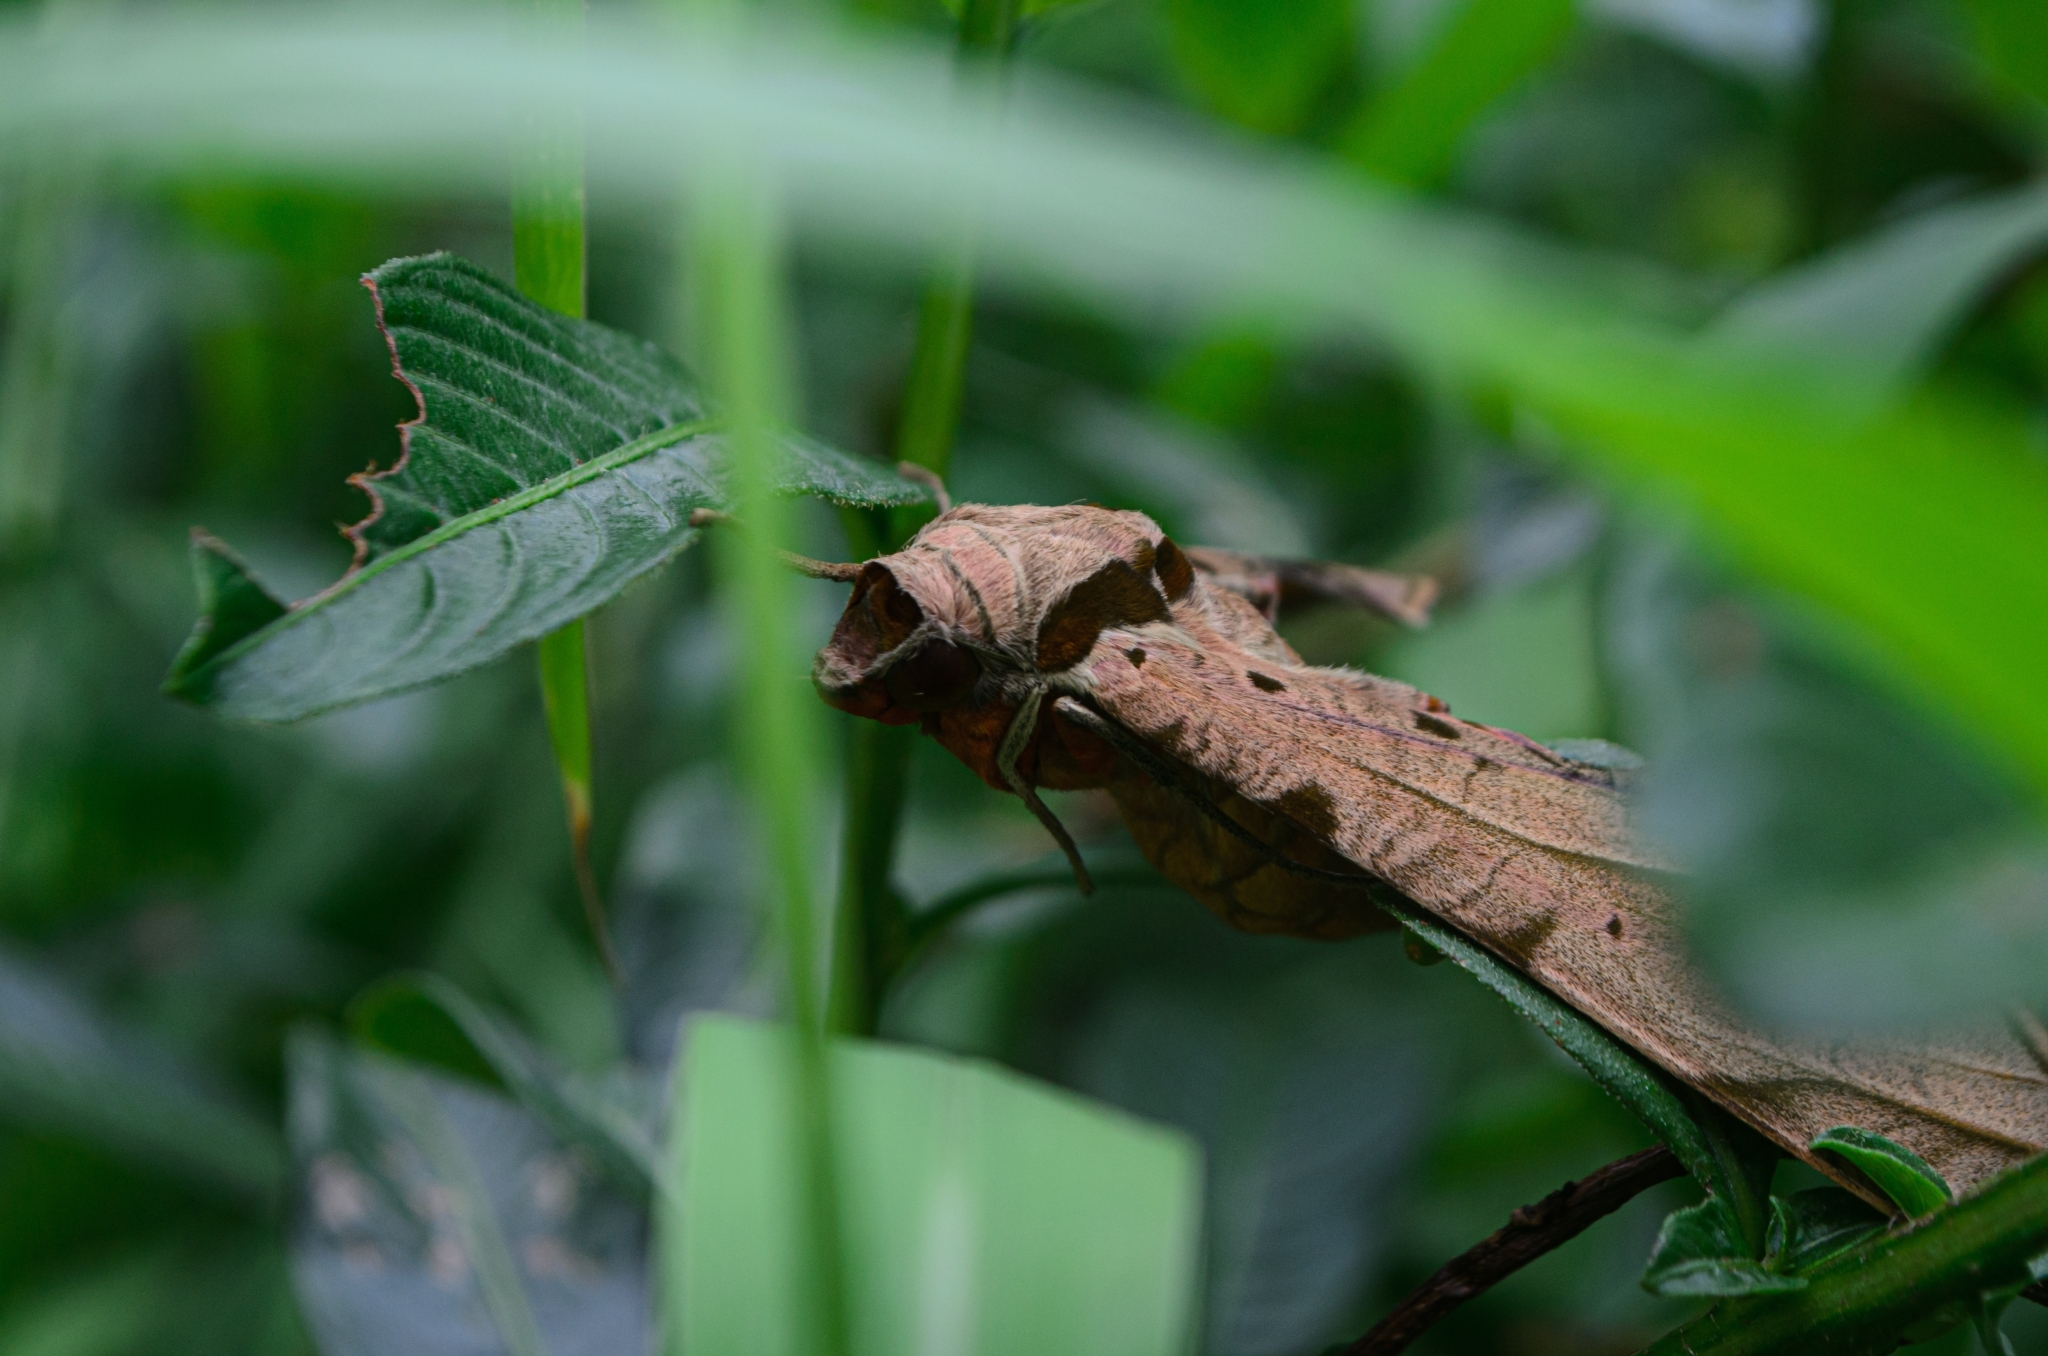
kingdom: Animalia
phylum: Arthropoda
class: Insecta
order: Lepidoptera
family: Sphingidae
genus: Protambulyx
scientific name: Protambulyx strigilis
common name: Streaked sphinx
